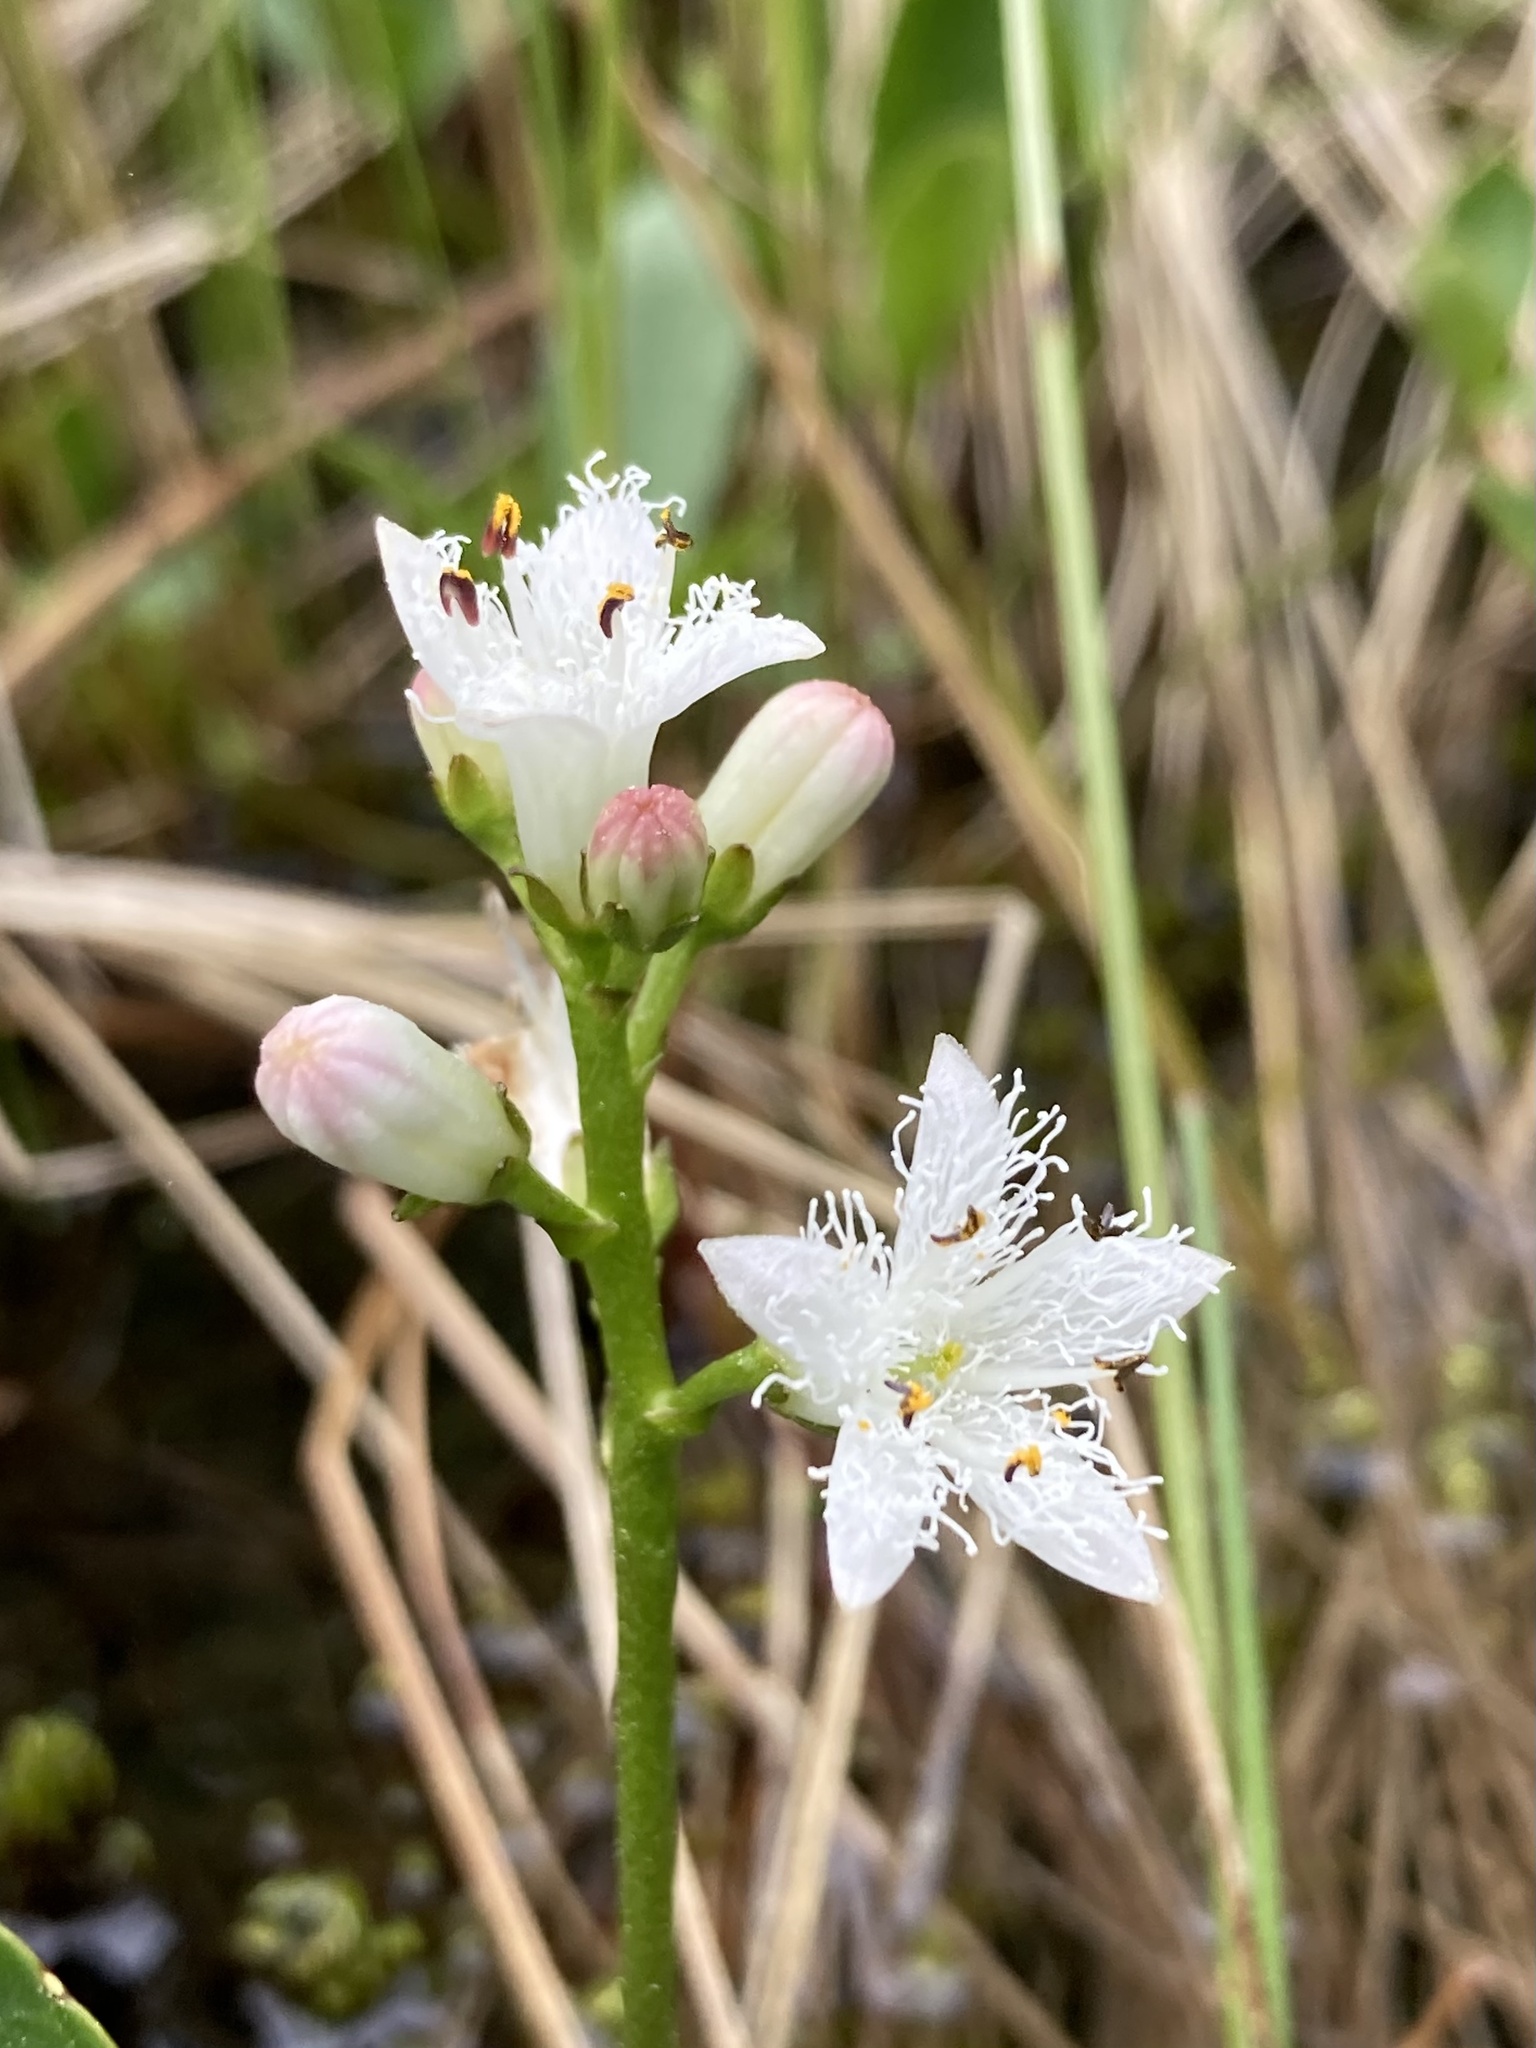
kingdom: Plantae
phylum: Tracheophyta
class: Magnoliopsida
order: Asterales
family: Menyanthaceae
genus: Menyanthes
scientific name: Menyanthes trifoliata
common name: Bogbean
